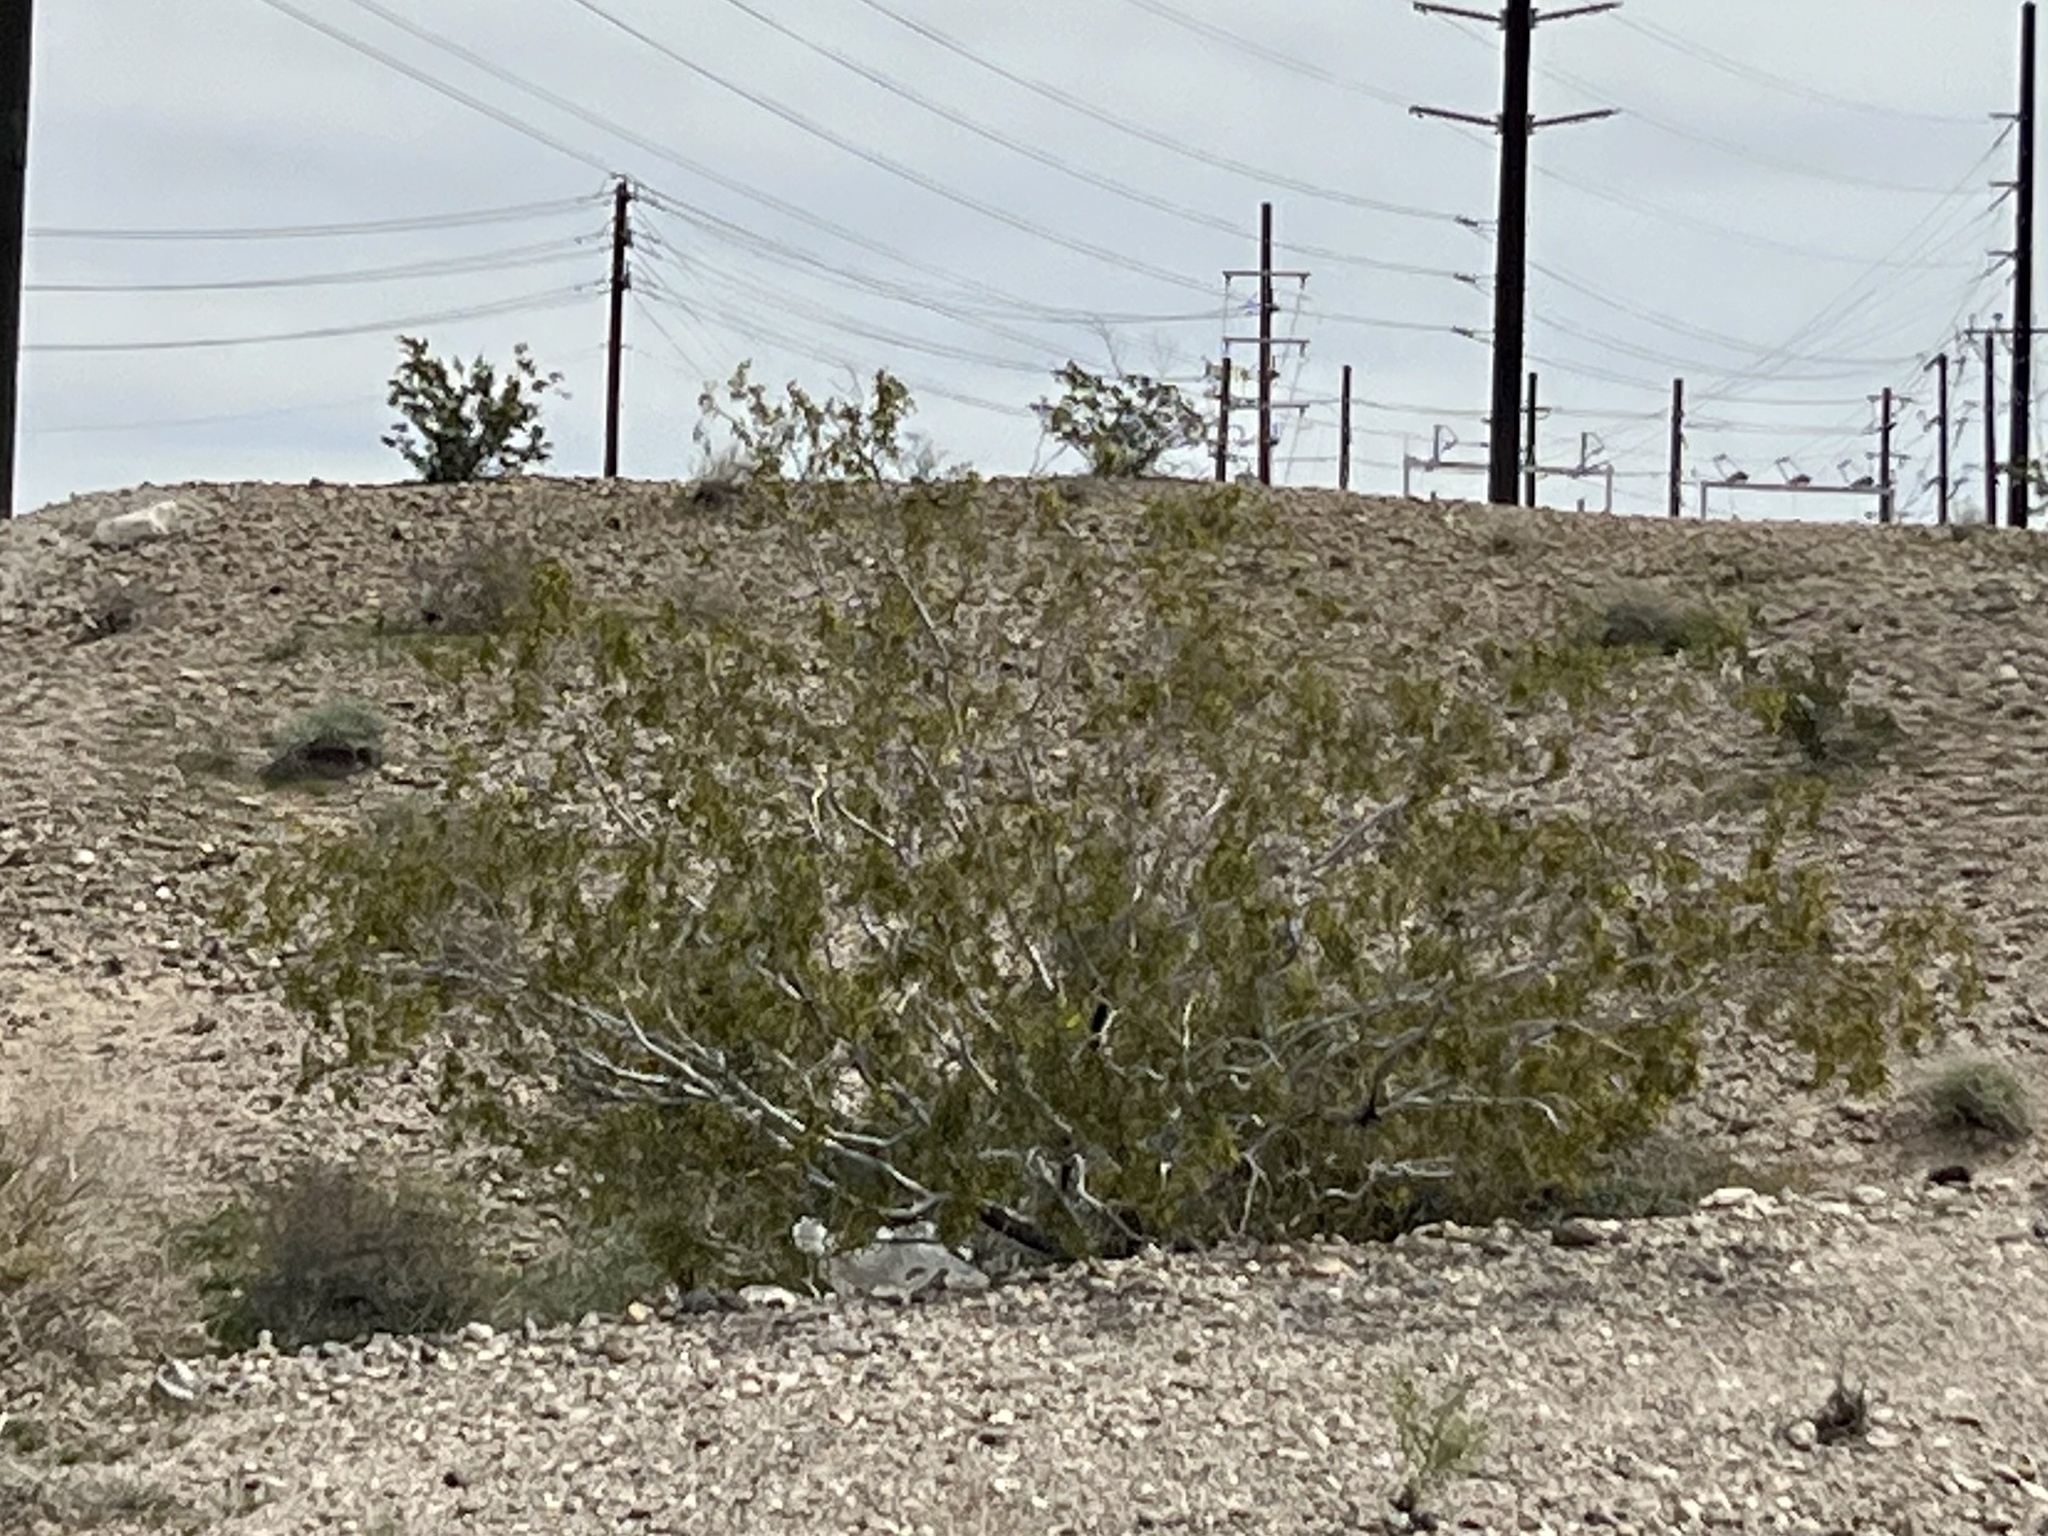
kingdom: Plantae
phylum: Tracheophyta
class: Magnoliopsida
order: Zygophyllales
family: Zygophyllaceae
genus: Larrea
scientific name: Larrea tridentata
